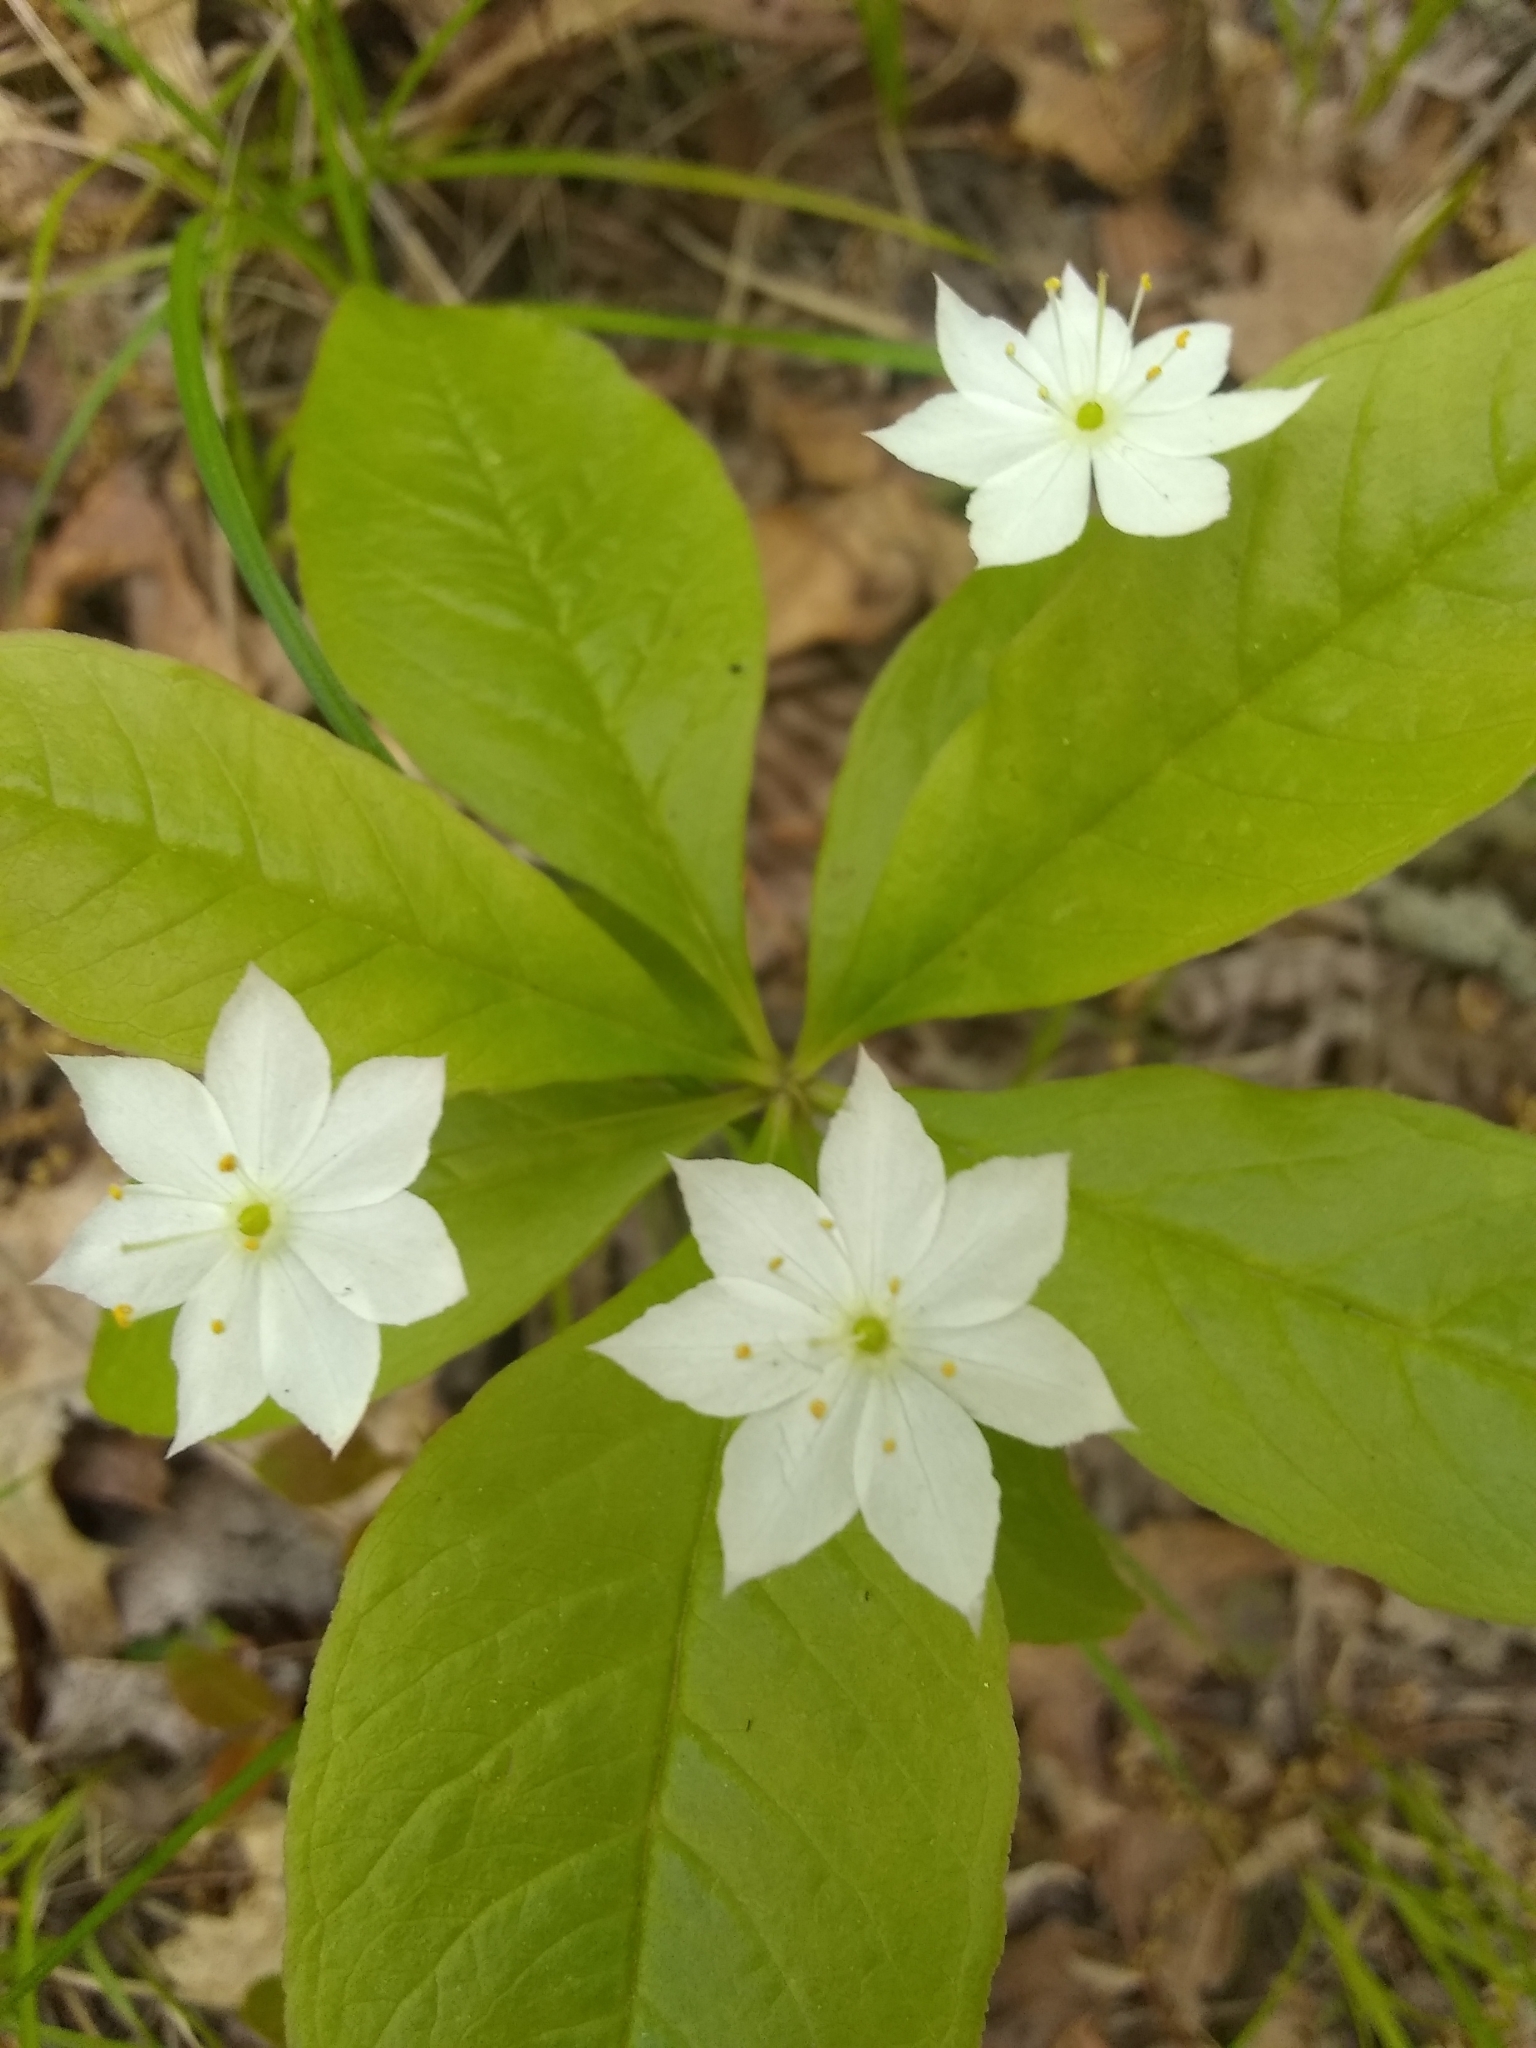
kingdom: Plantae
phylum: Tracheophyta
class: Magnoliopsida
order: Ericales
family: Primulaceae
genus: Lysimachia
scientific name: Lysimachia borealis
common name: American starflower
